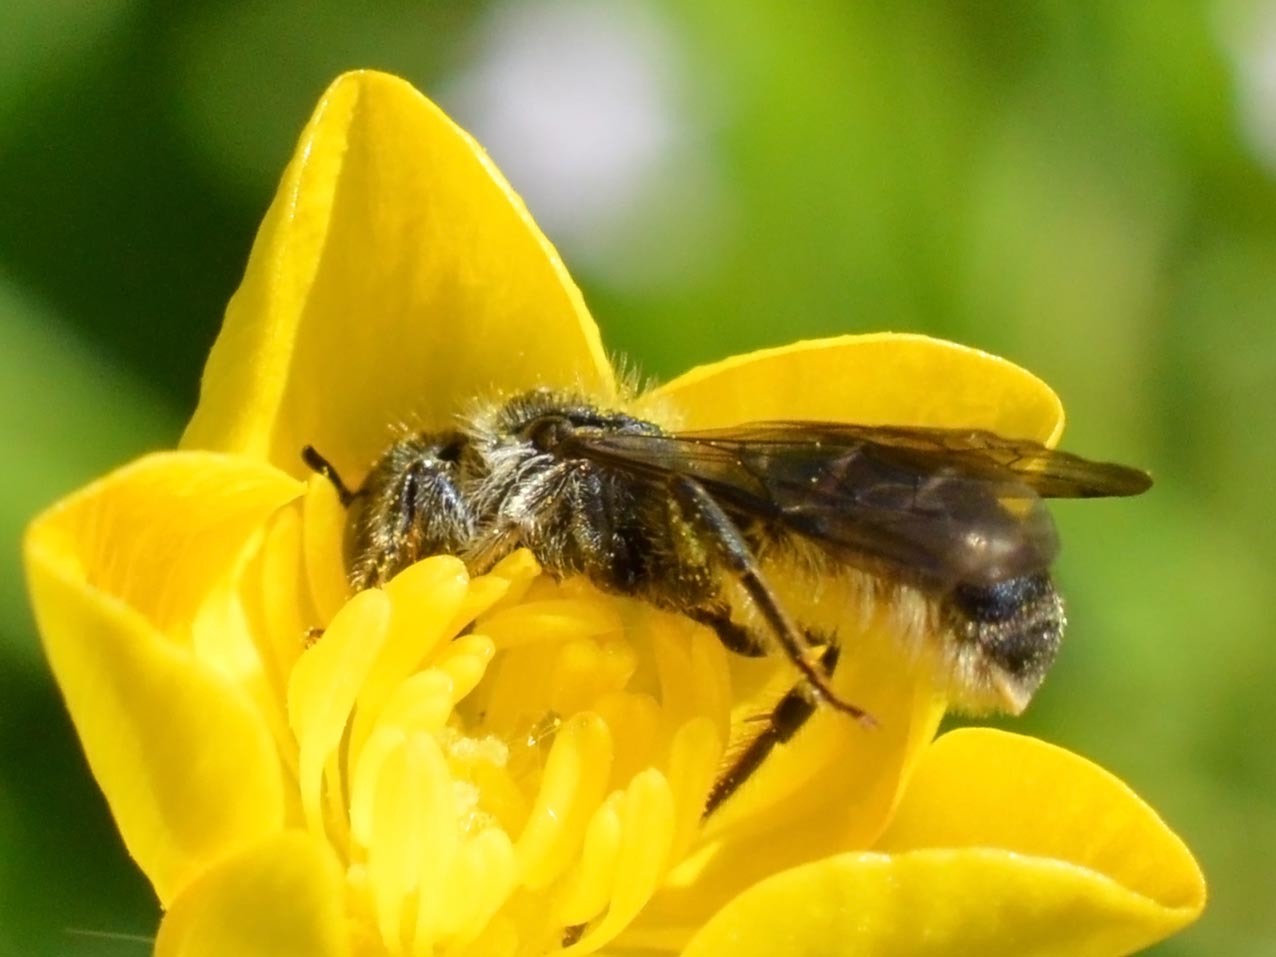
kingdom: Animalia
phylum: Arthropoda
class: Insecta
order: Hymenoptera
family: Megachilidae
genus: Chelostoma
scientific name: Chelostoma florisomne
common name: Sleepy carpenter bee
